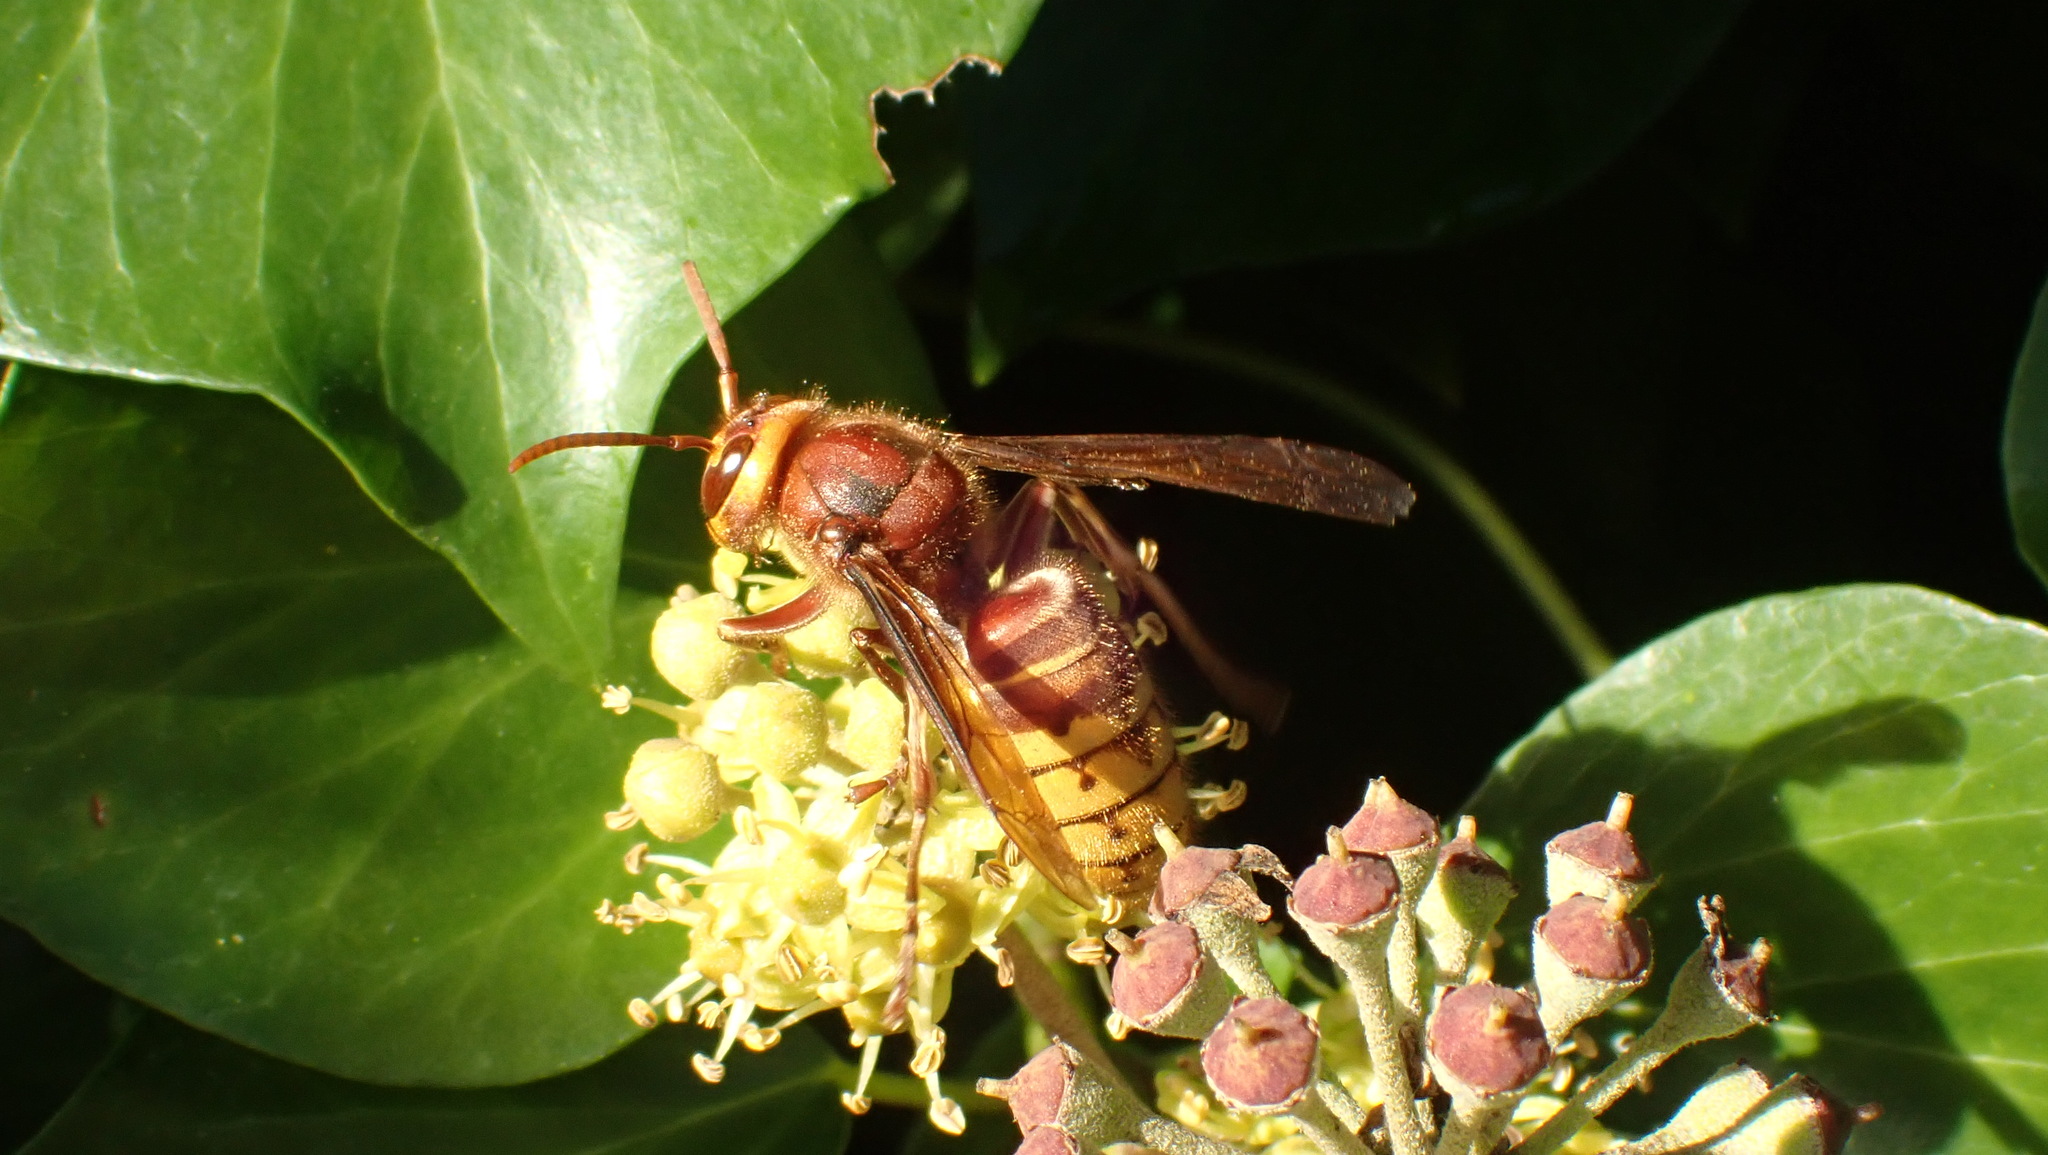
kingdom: Animalia
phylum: Arthropoda
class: Insecta
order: Hymenoptera
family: Vespidae
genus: Vespa
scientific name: Vespa crabro
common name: Hornet
